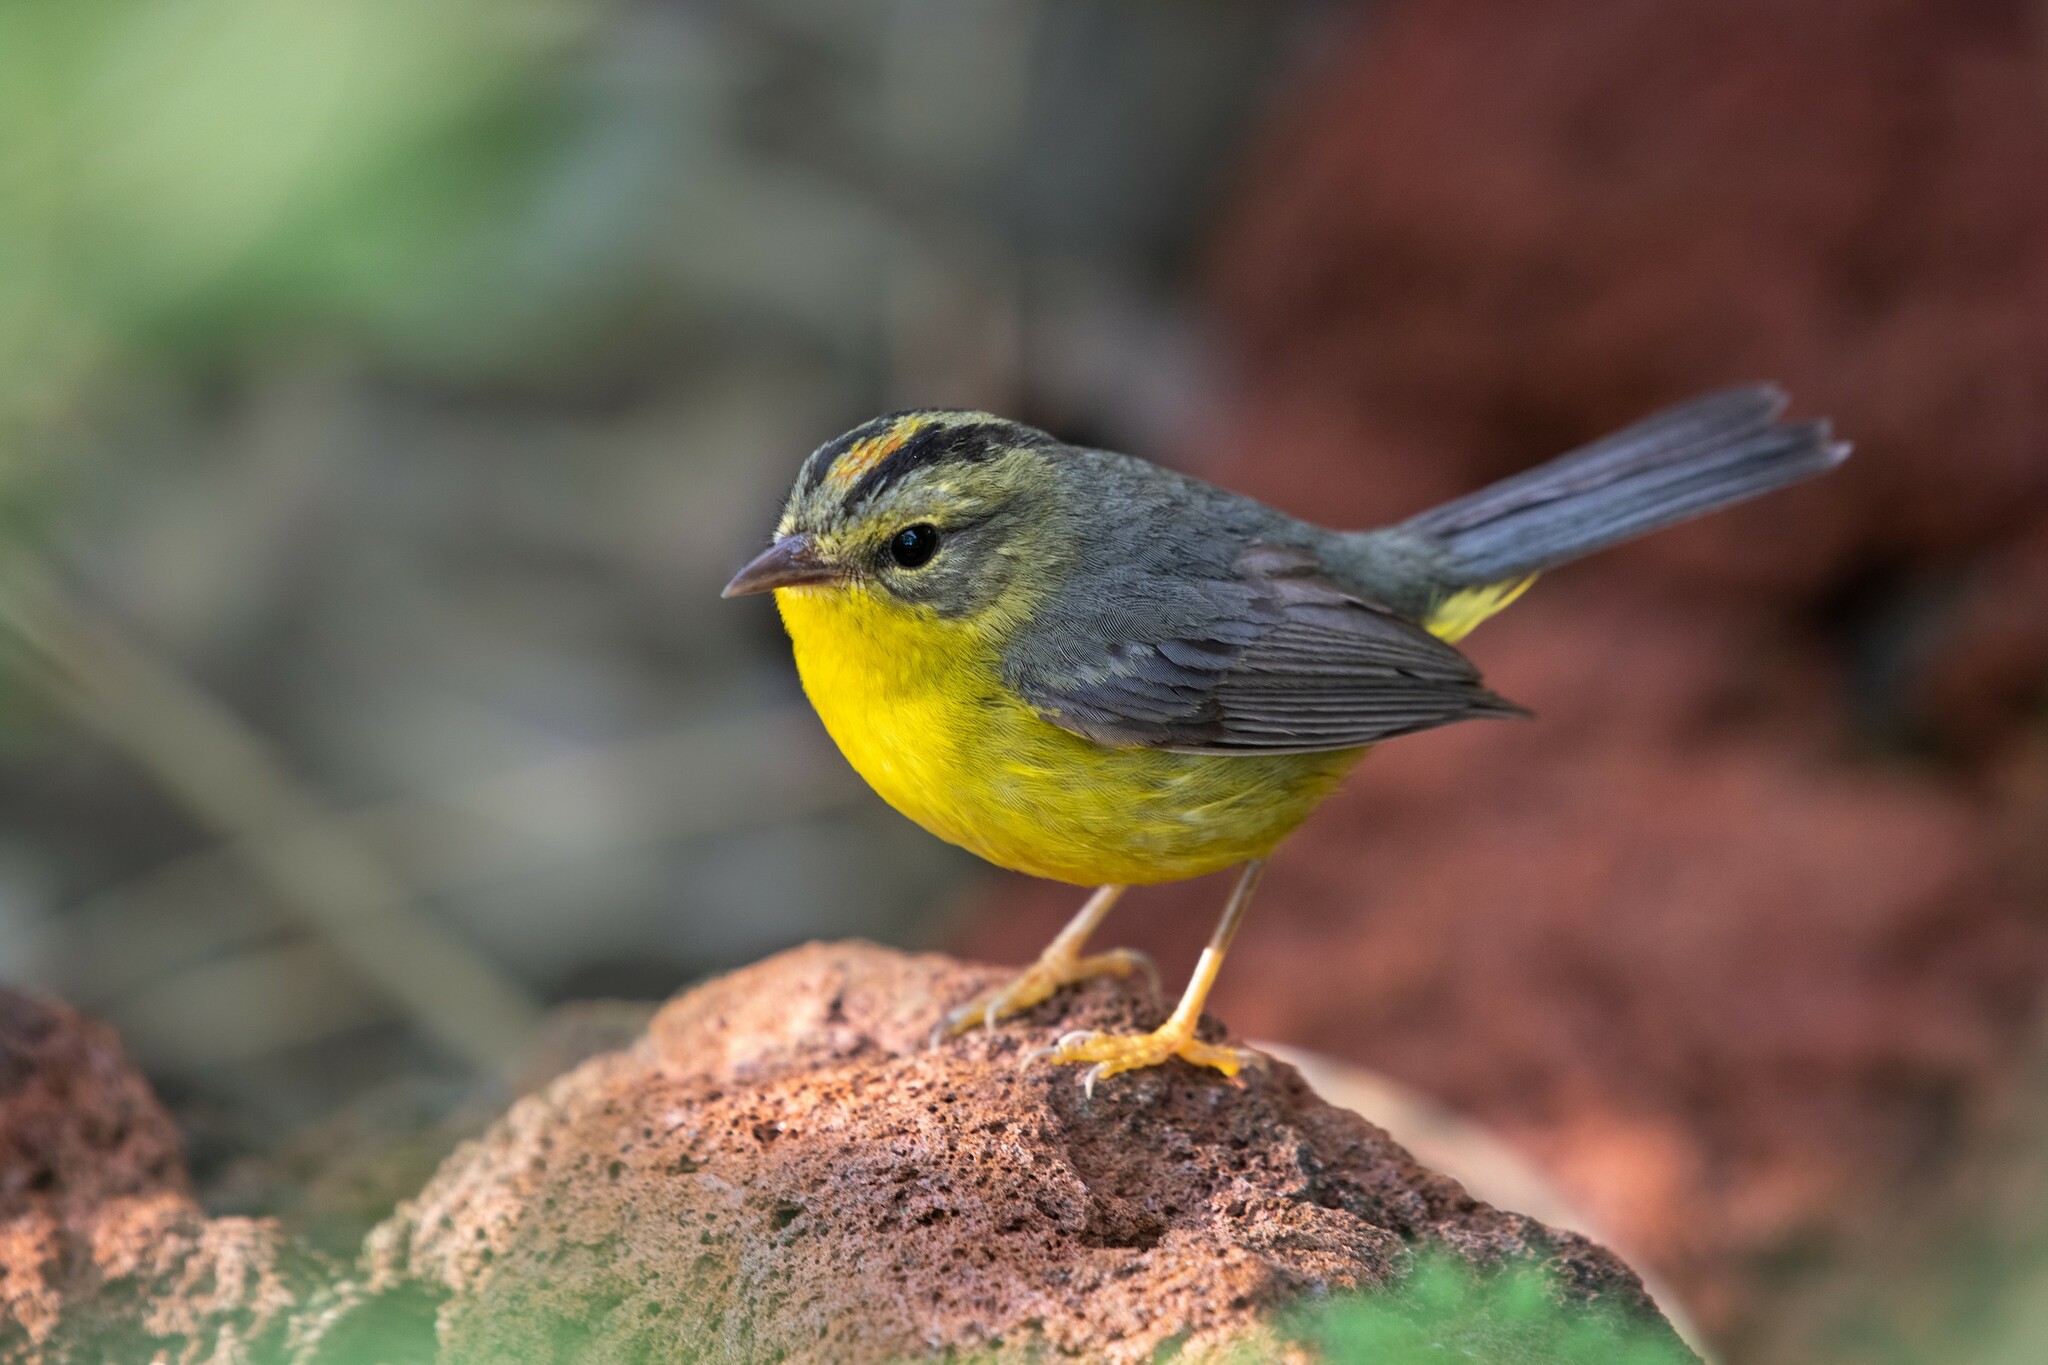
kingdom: Animalia
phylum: Chordata
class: Aves
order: Passeriformes
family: Parulidae
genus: Basileuterus
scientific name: Basileuterus culicivorus
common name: Golden-crowned warbler
